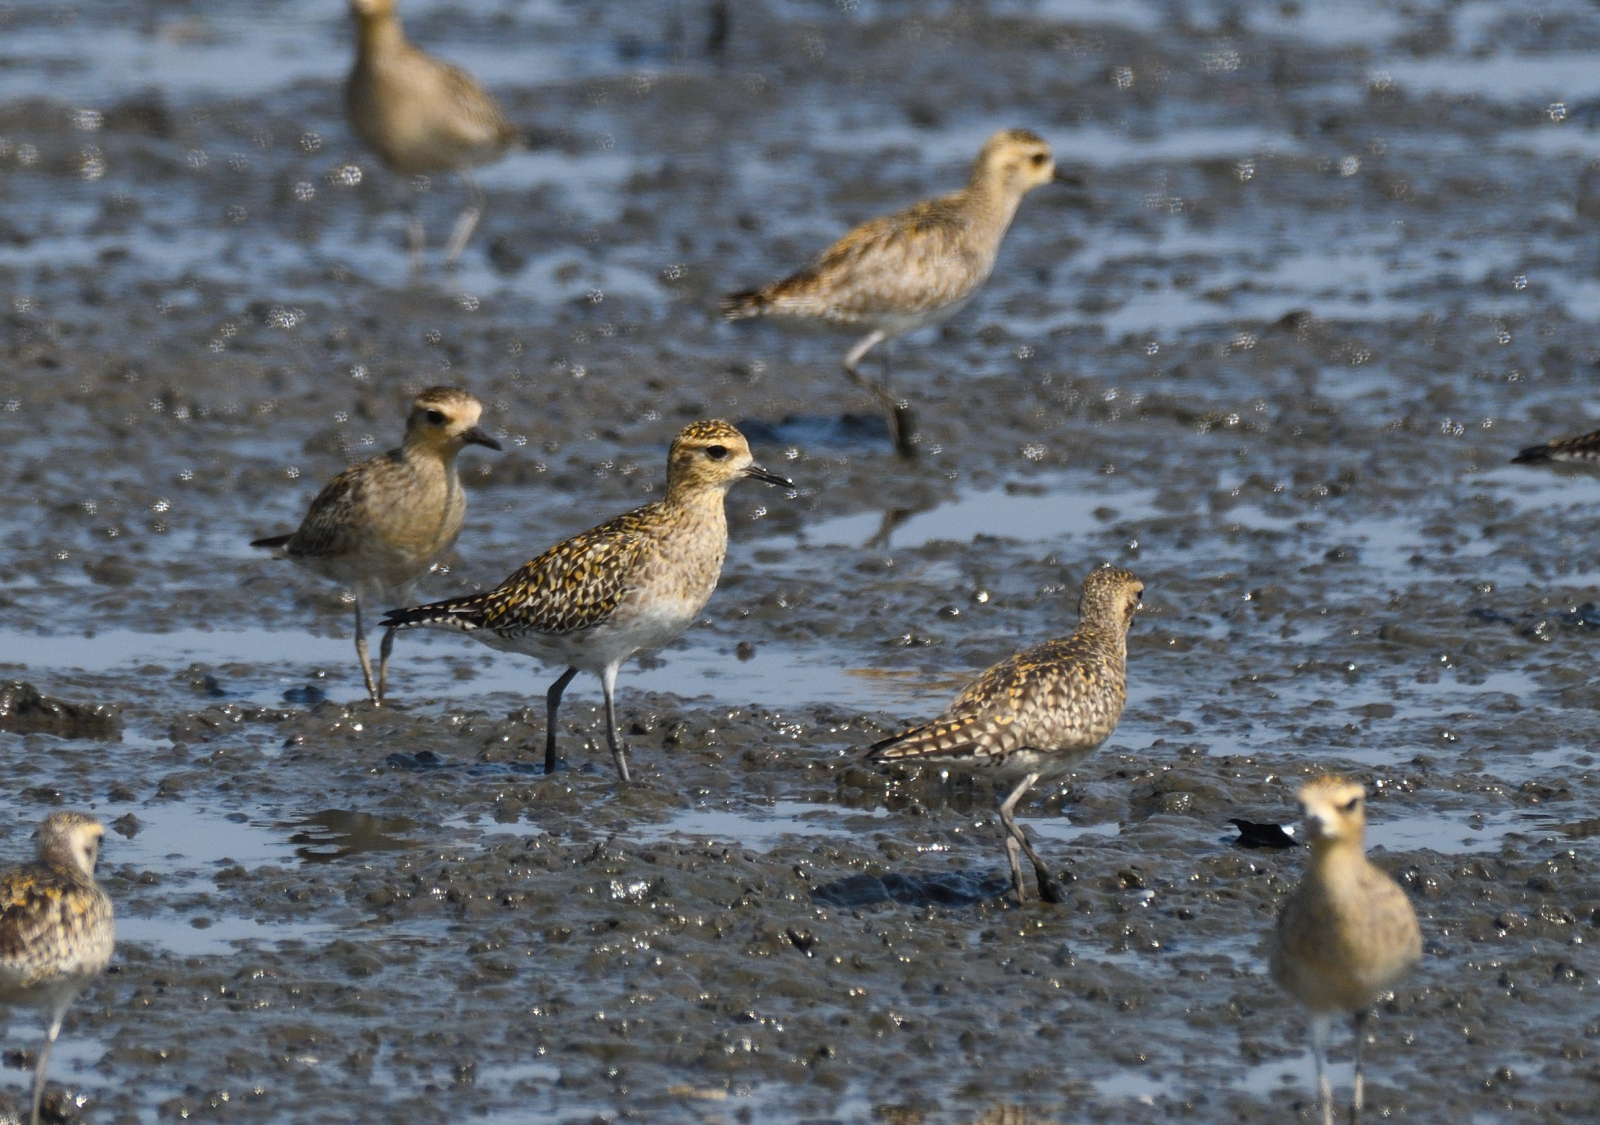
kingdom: Animalia
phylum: Chordata
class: Aves
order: Charadriiformes
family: Charadriidae
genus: Pluvialis
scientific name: Pluvialis fulva
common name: Pacific golden plover
